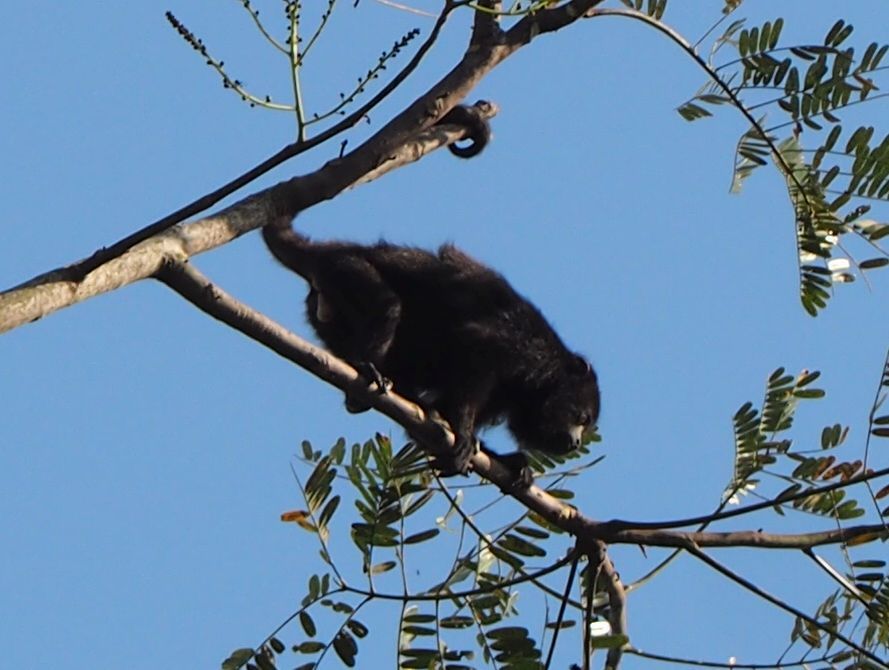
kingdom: Animalia
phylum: Chordata
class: Mammalia
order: Primates
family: Atelidae
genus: Alouatta
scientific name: Alouatta pigra
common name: Guatemalan black howler
